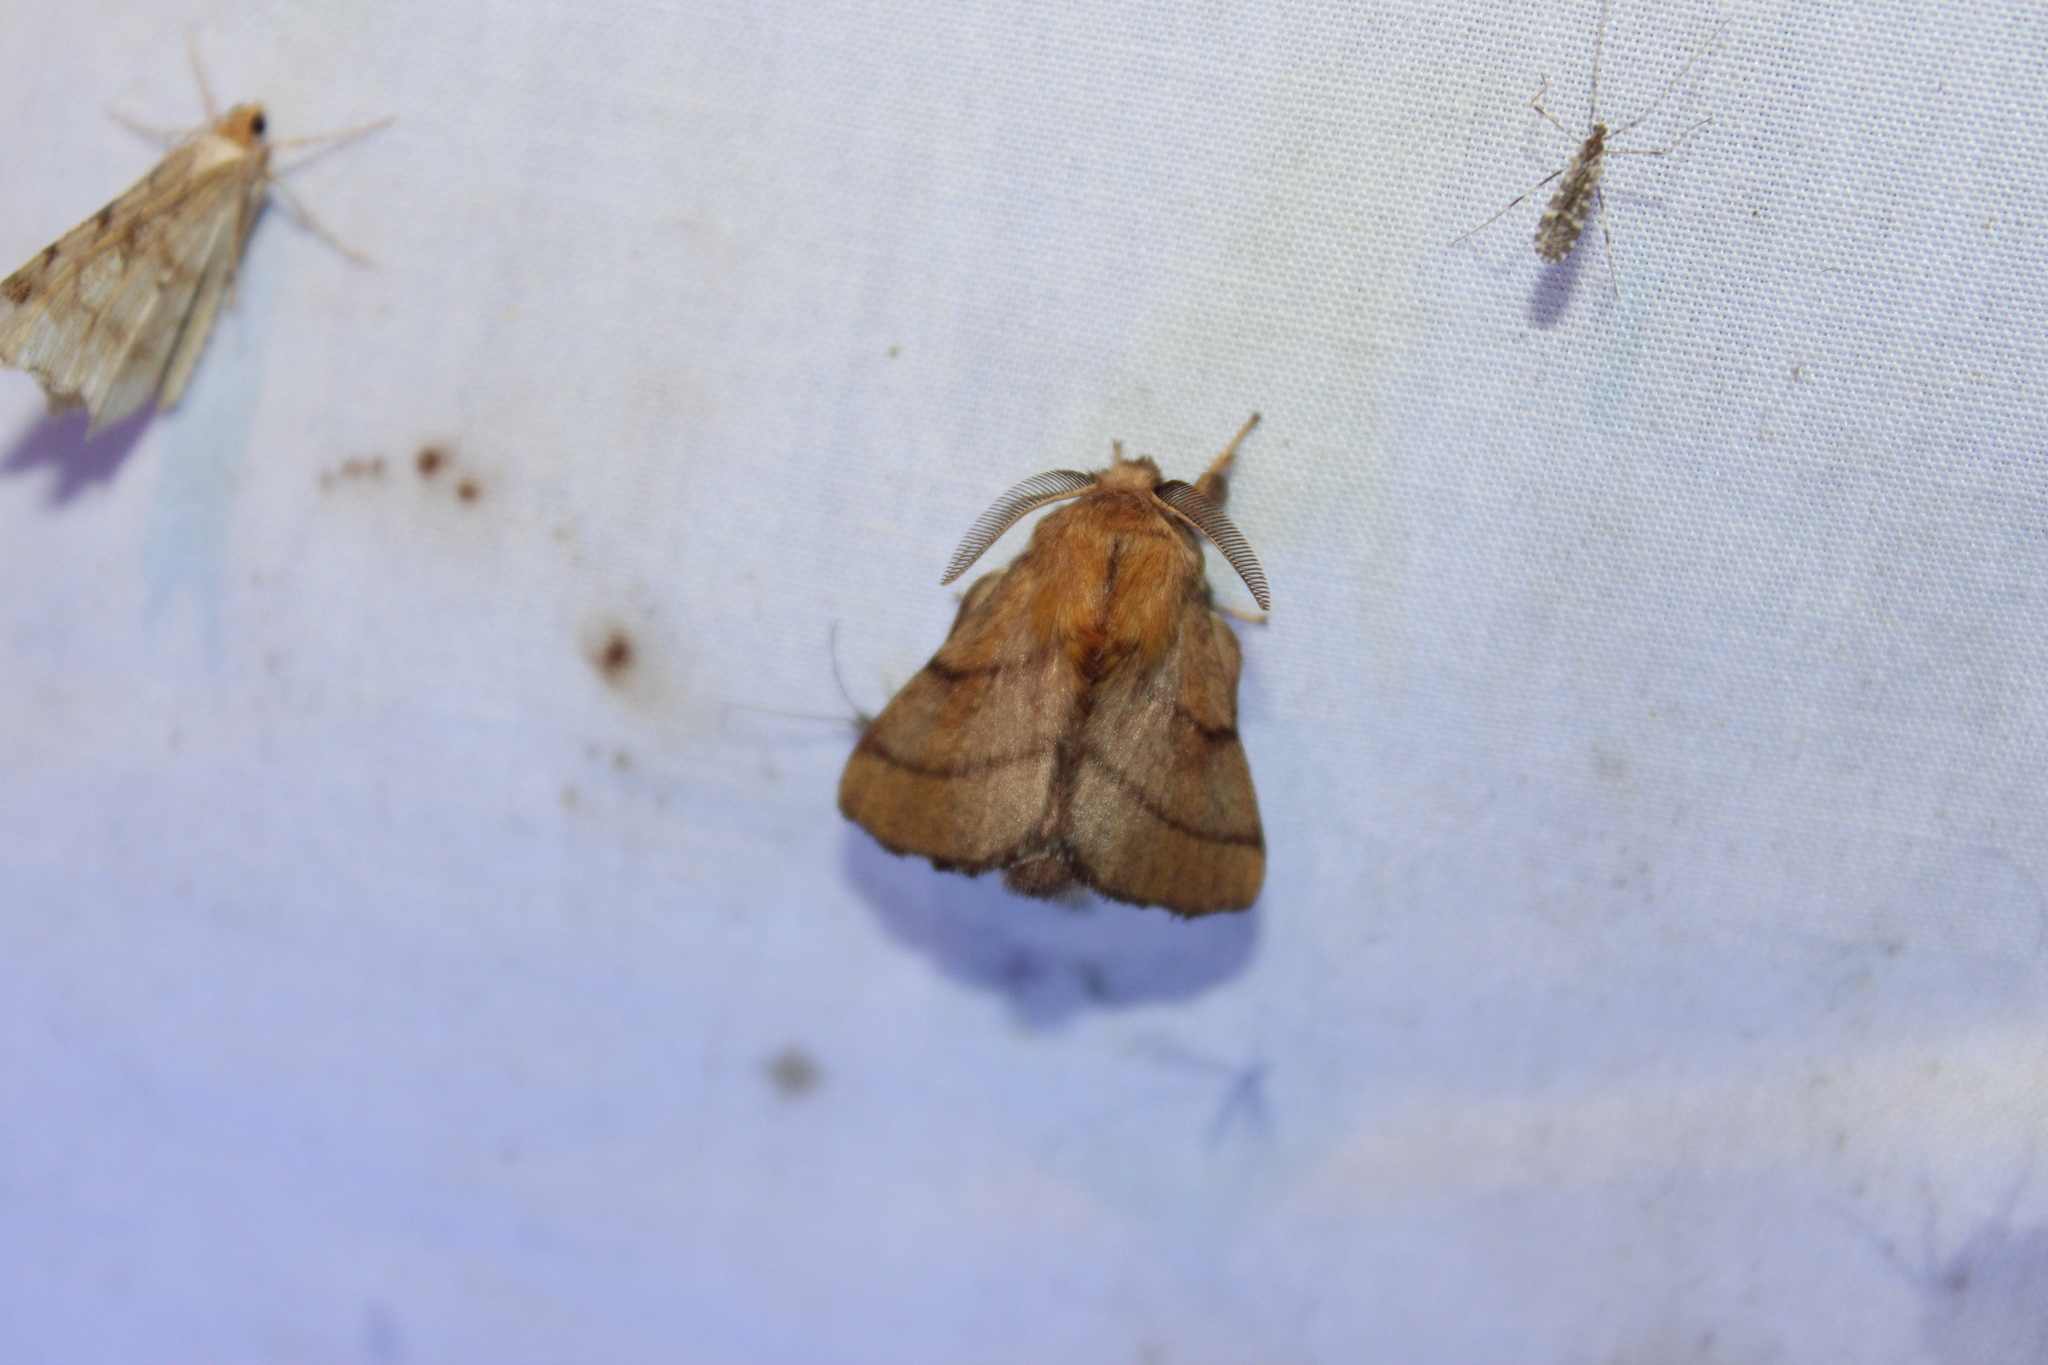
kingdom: Animalia
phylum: Arthropoda
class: Insecta
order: Lepidoptera
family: Lasiocampidae
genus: Malacosoma
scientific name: Malacosoma disstria
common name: Forest tent caterpillar
